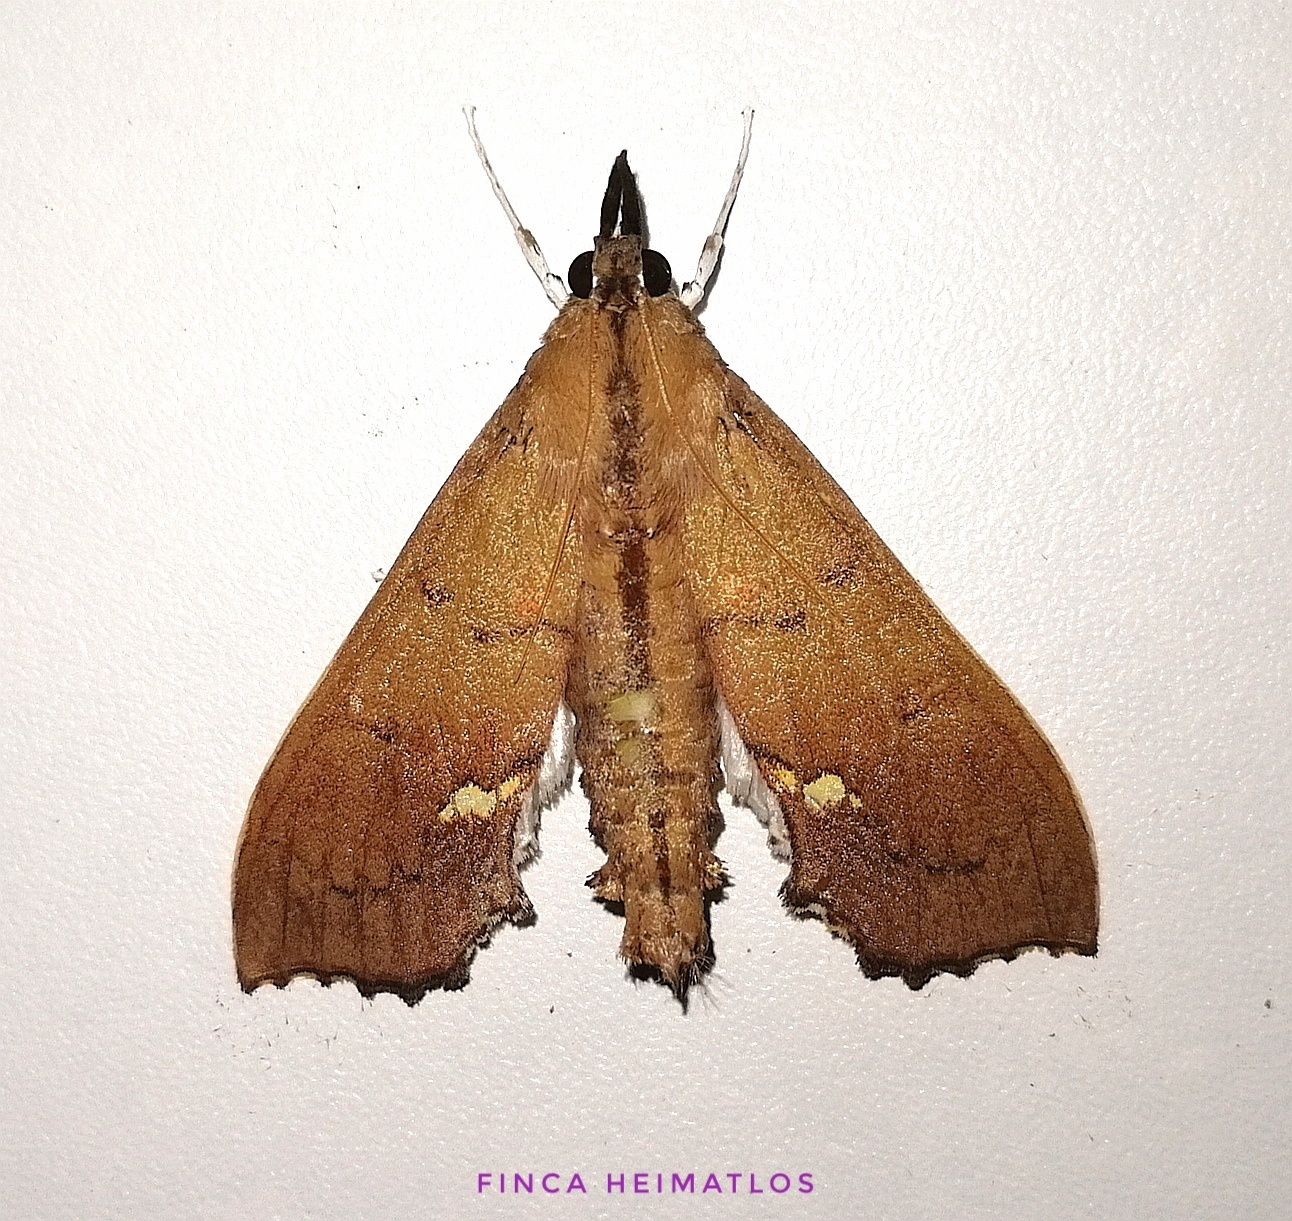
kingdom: Animalia
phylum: Arthropoda
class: Insecta
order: Lepidoptera
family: Crambidae
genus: Liopasia
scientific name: Liopasia andrealis
